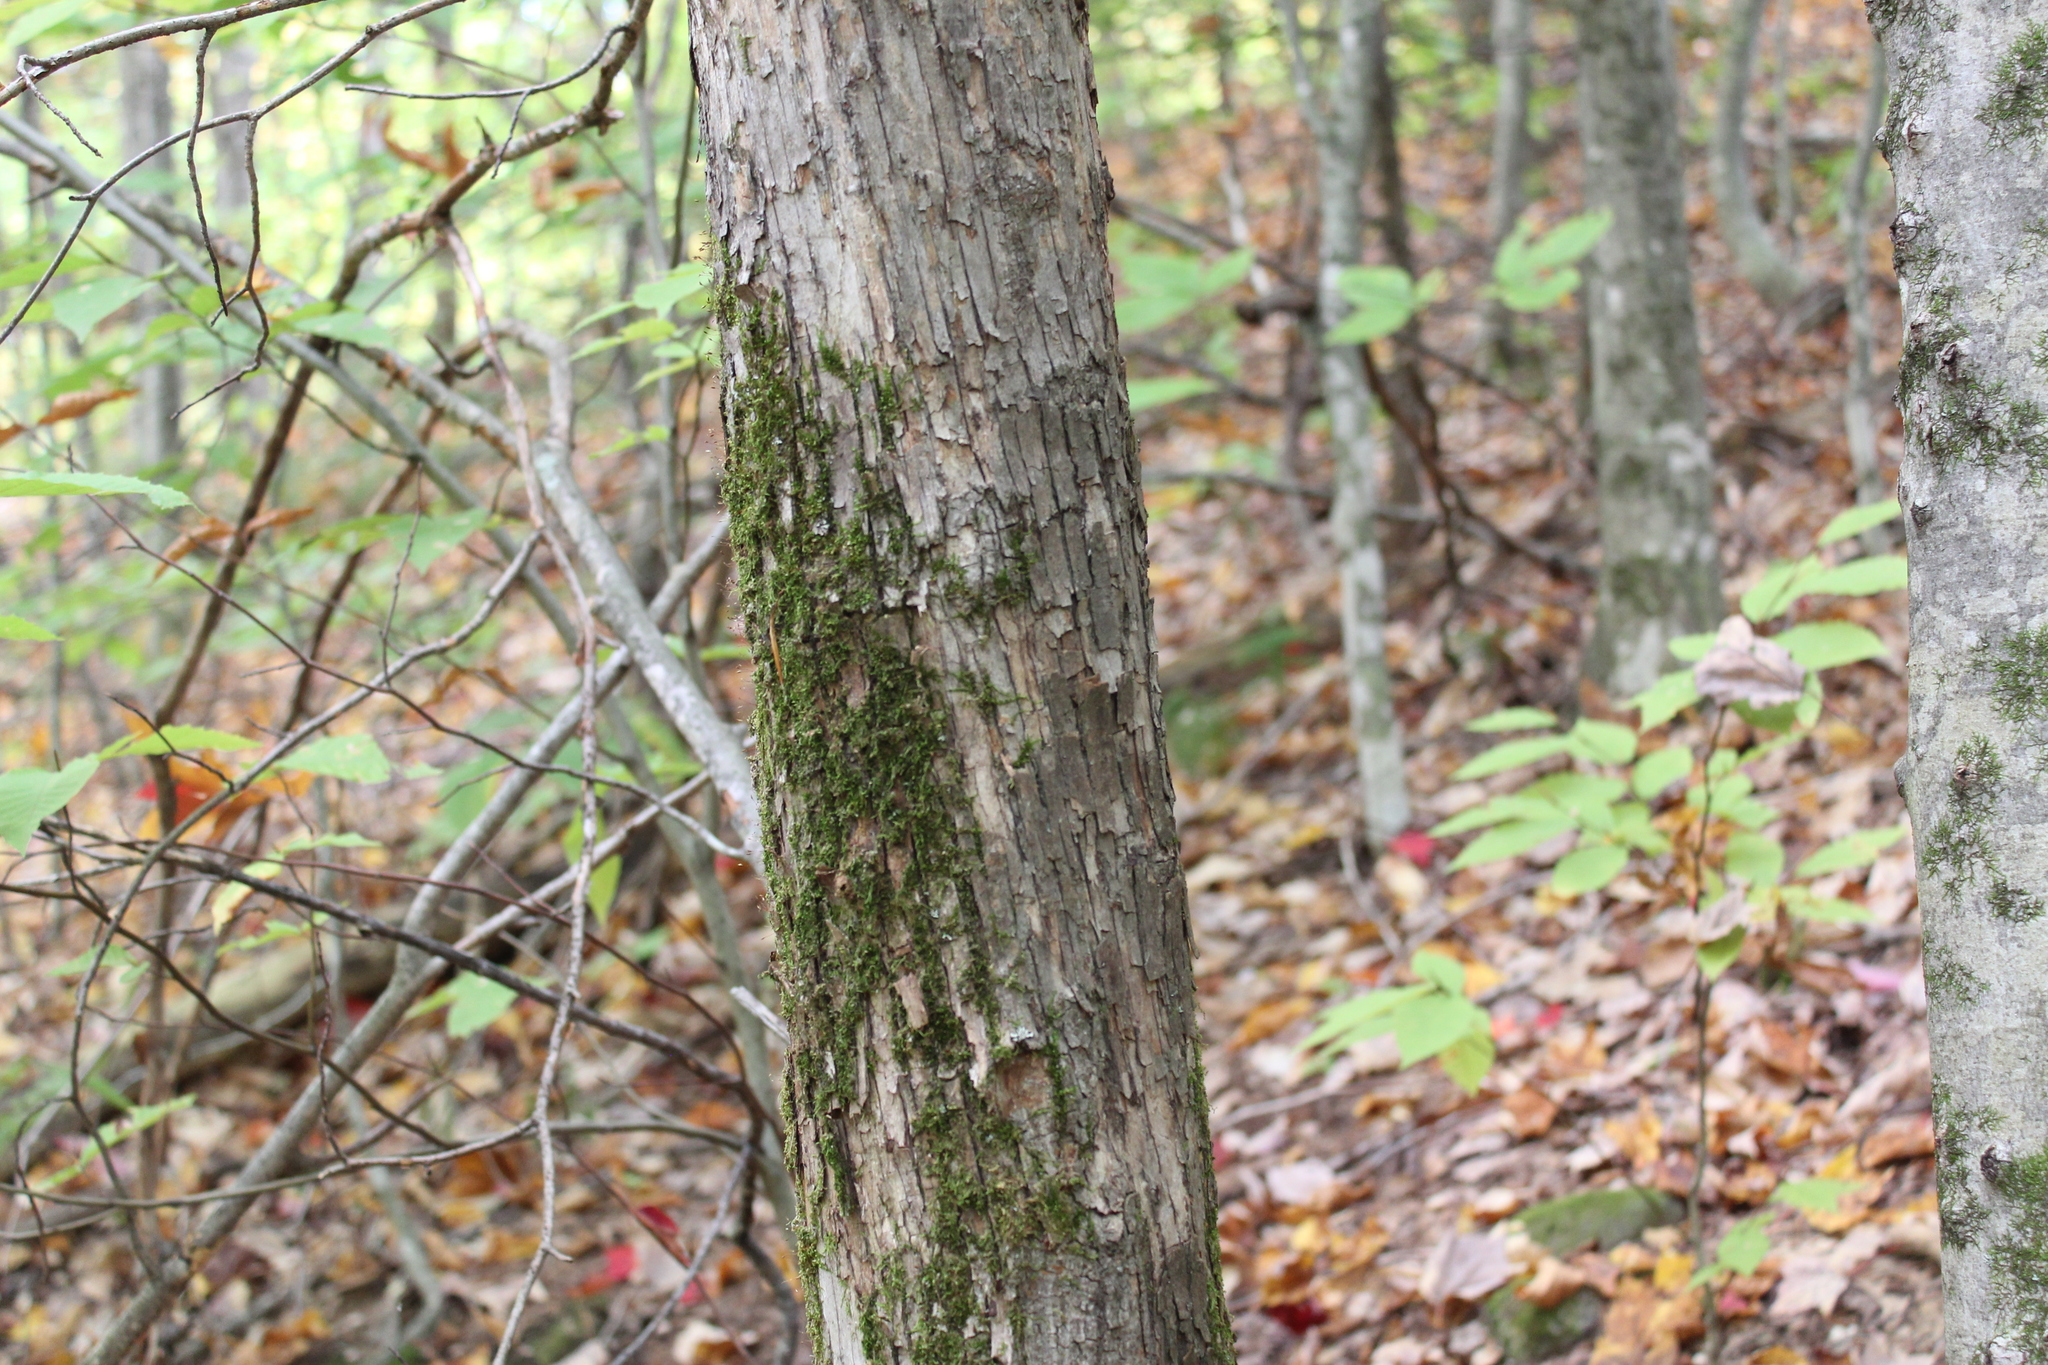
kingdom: Plantae
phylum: Tracheophyta
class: Magnoliopsida
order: Fagales
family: Betulaceae
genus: Ostrya
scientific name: Ostrya virginiana
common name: Ironwood
